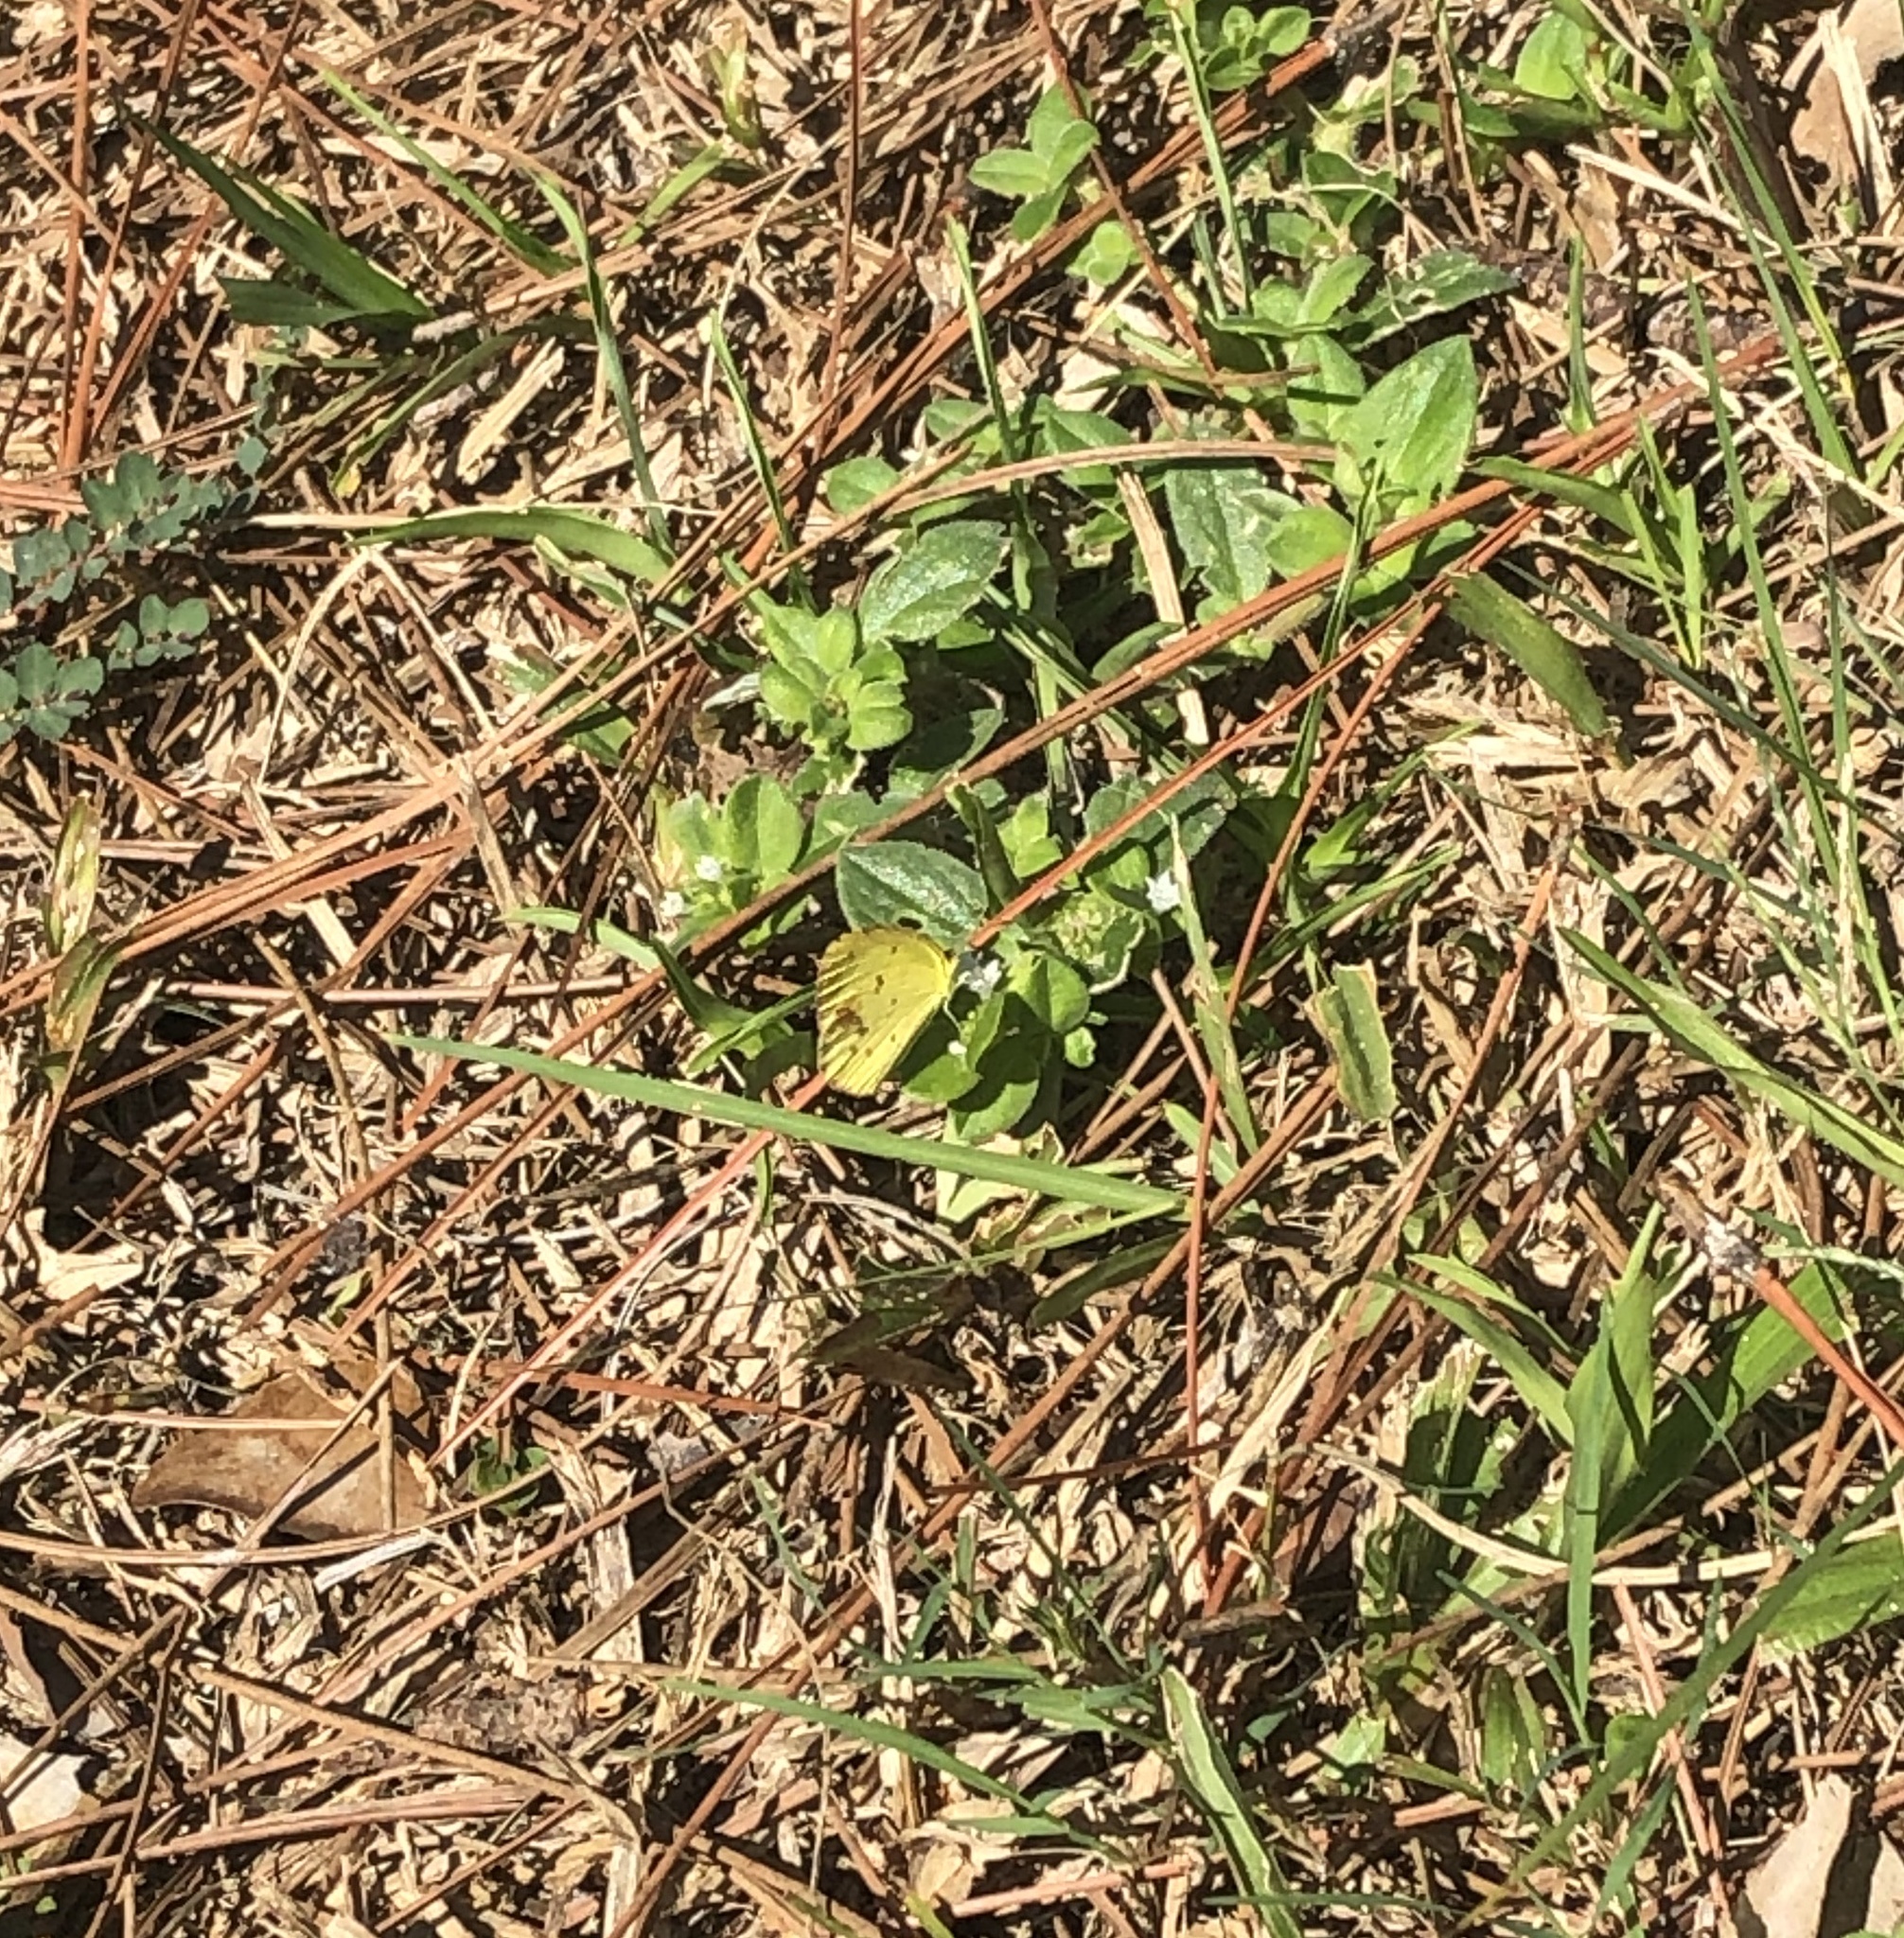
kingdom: Animalia
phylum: Arthropoda
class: Insecta
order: Lepidoptera
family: Pieridae
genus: Pyrisitia
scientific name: Pyrisitia lisa
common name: Little yellow
